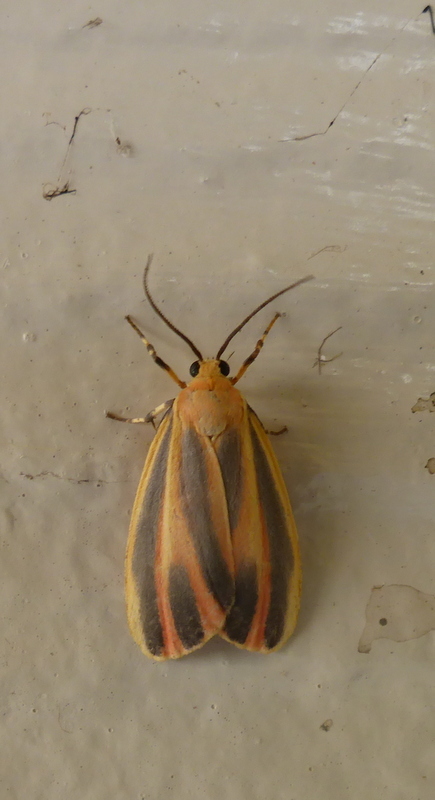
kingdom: Animalia
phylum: Arthropoda
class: Insecta
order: Lepidoptera
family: Erebidae
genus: Hypoprepia
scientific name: Hypoprepia fucosa
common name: Painted lichen moth
